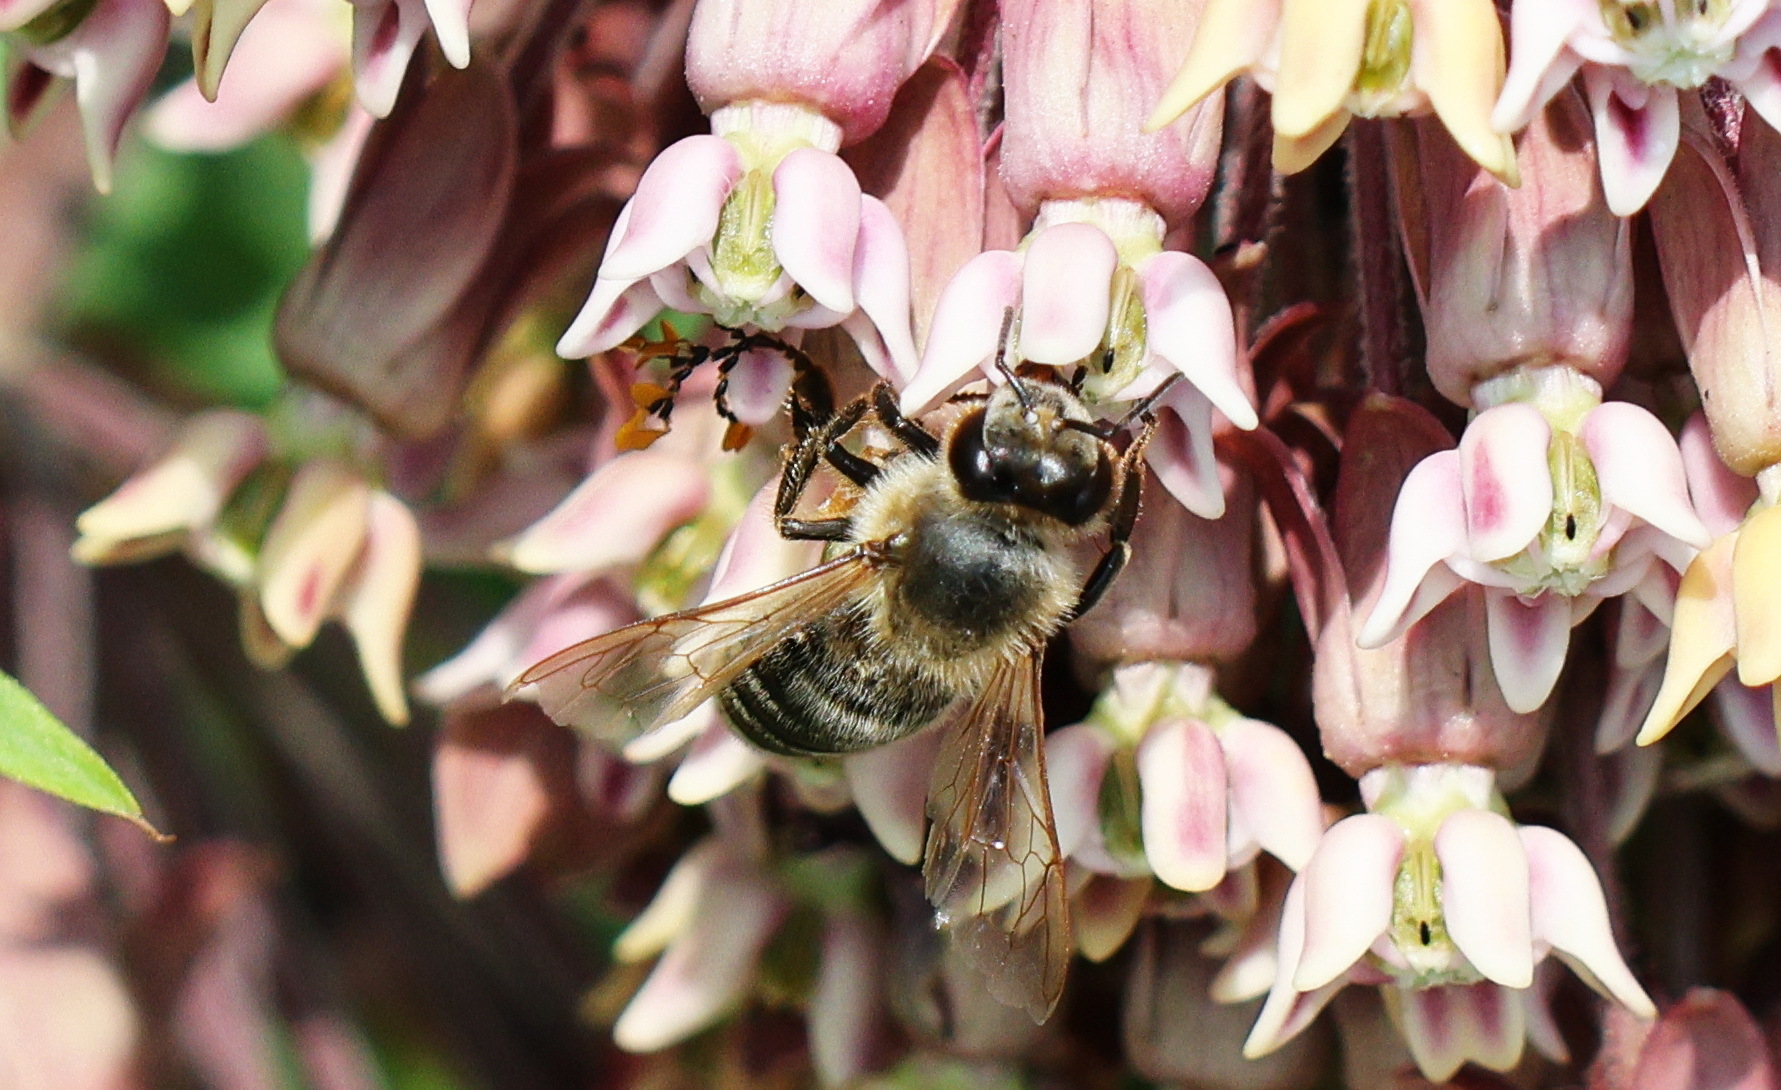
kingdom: Animalia
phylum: Arthropoda
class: Insecta
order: Hymenoptera
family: Apidae
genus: Apis
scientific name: Apis mellifera
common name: Honey bee
